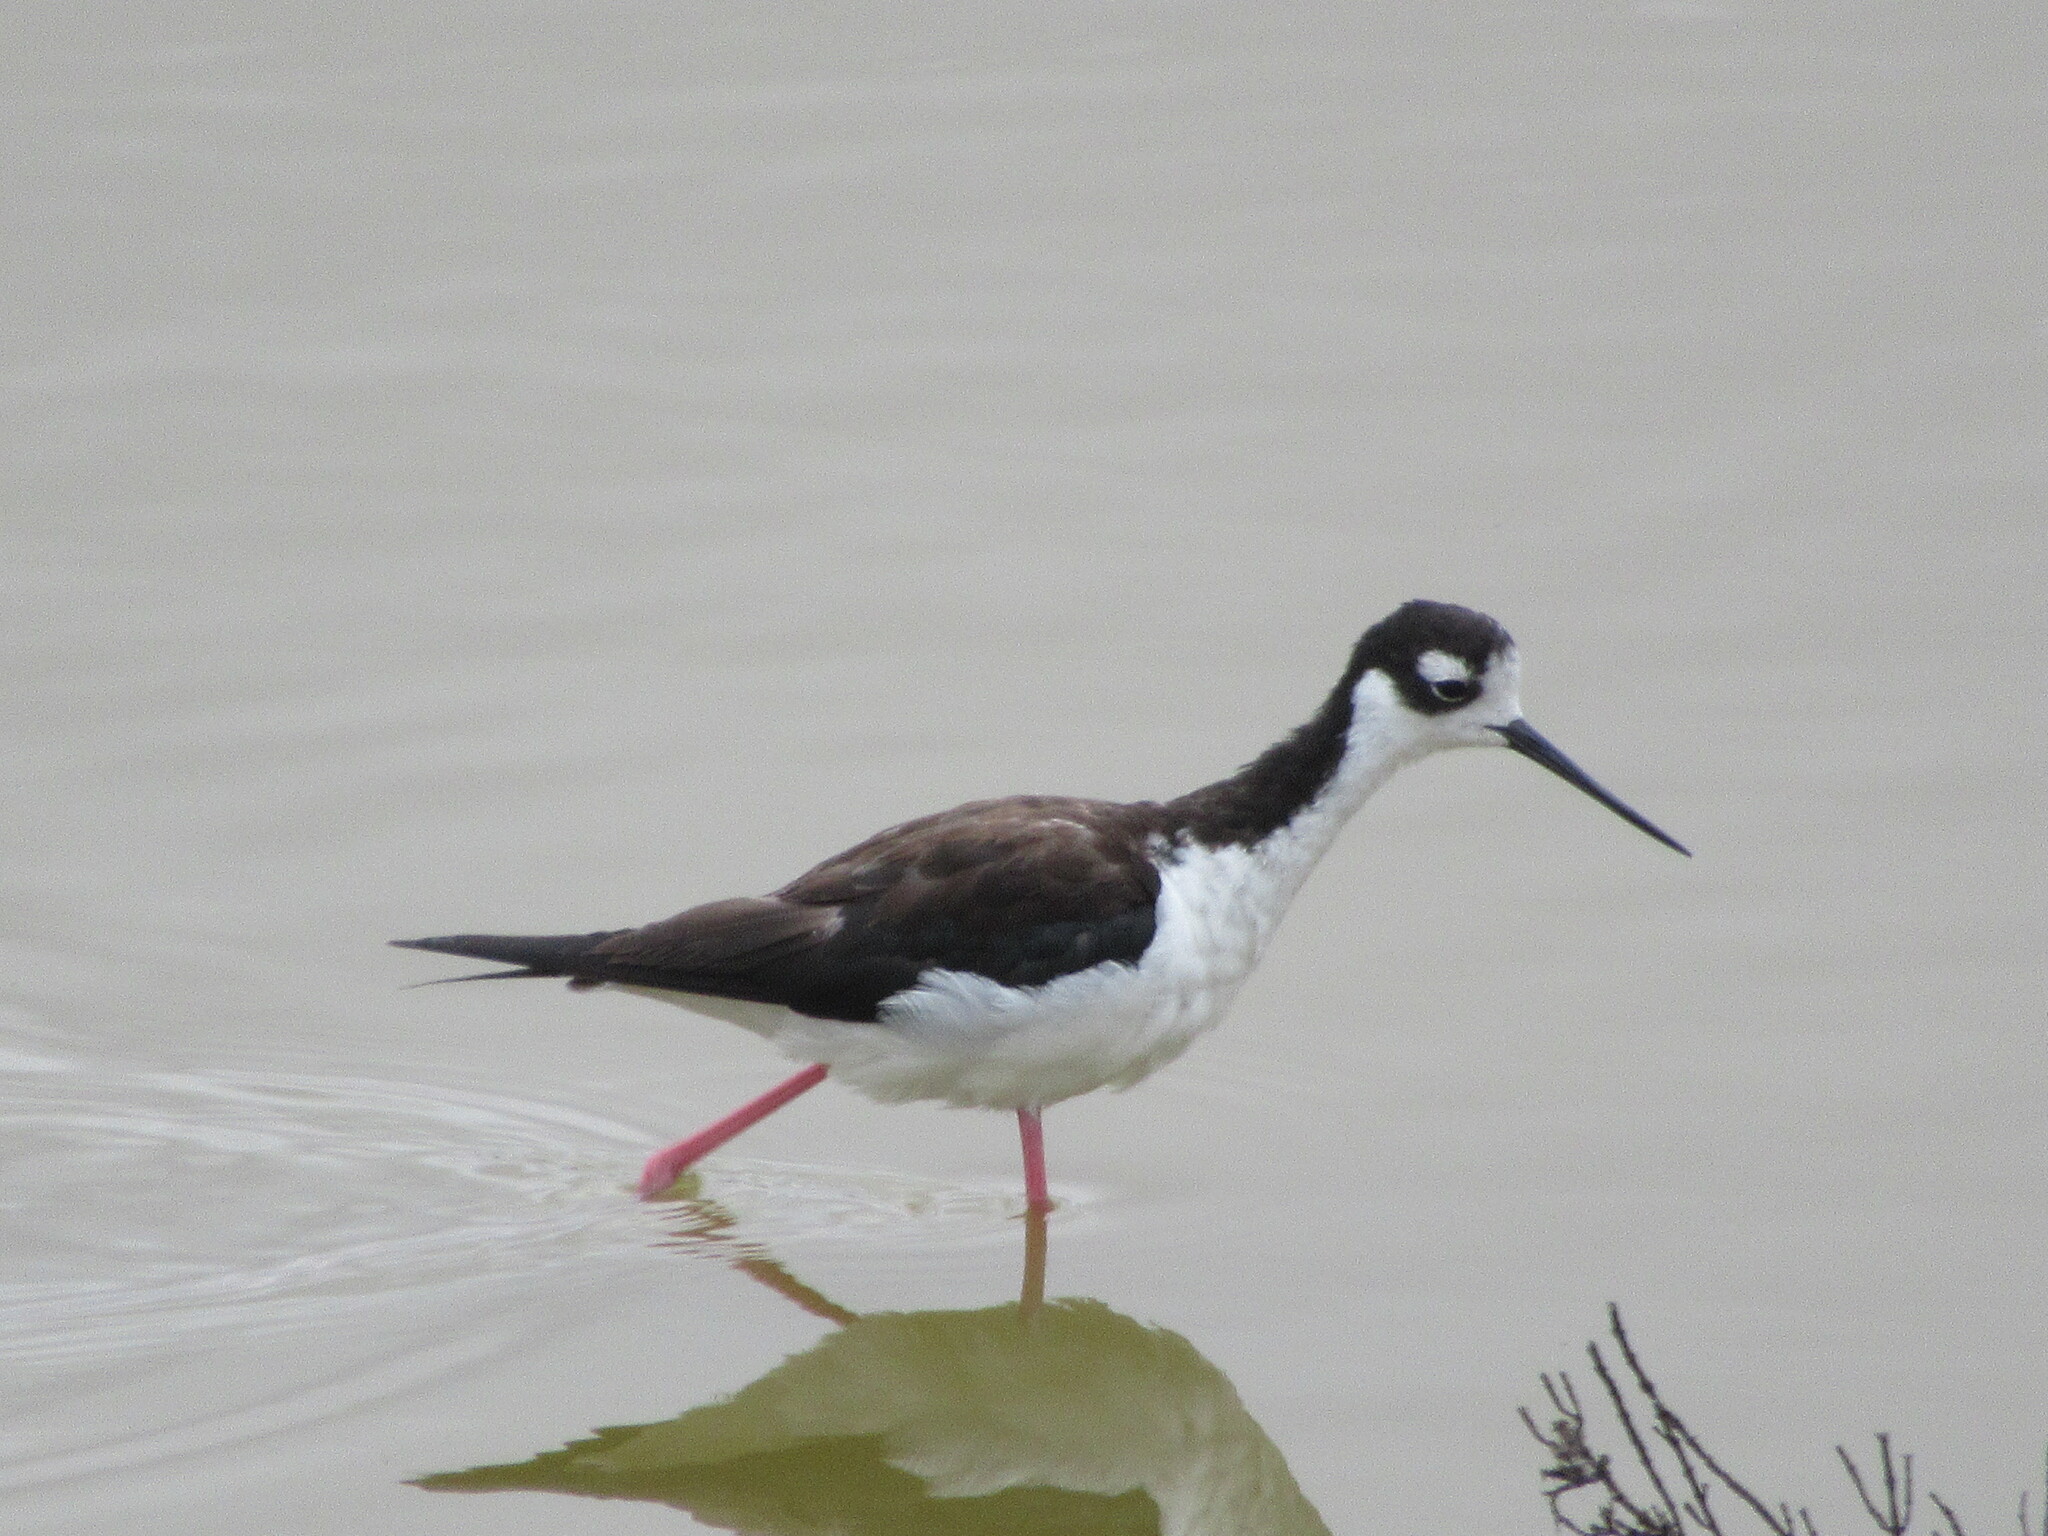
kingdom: Animalia
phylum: Chordata
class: Aves
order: Charadriiformes
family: Recurvirostridae
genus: Himantopus
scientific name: Himantopus mexicanus
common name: Black-necked stilt
